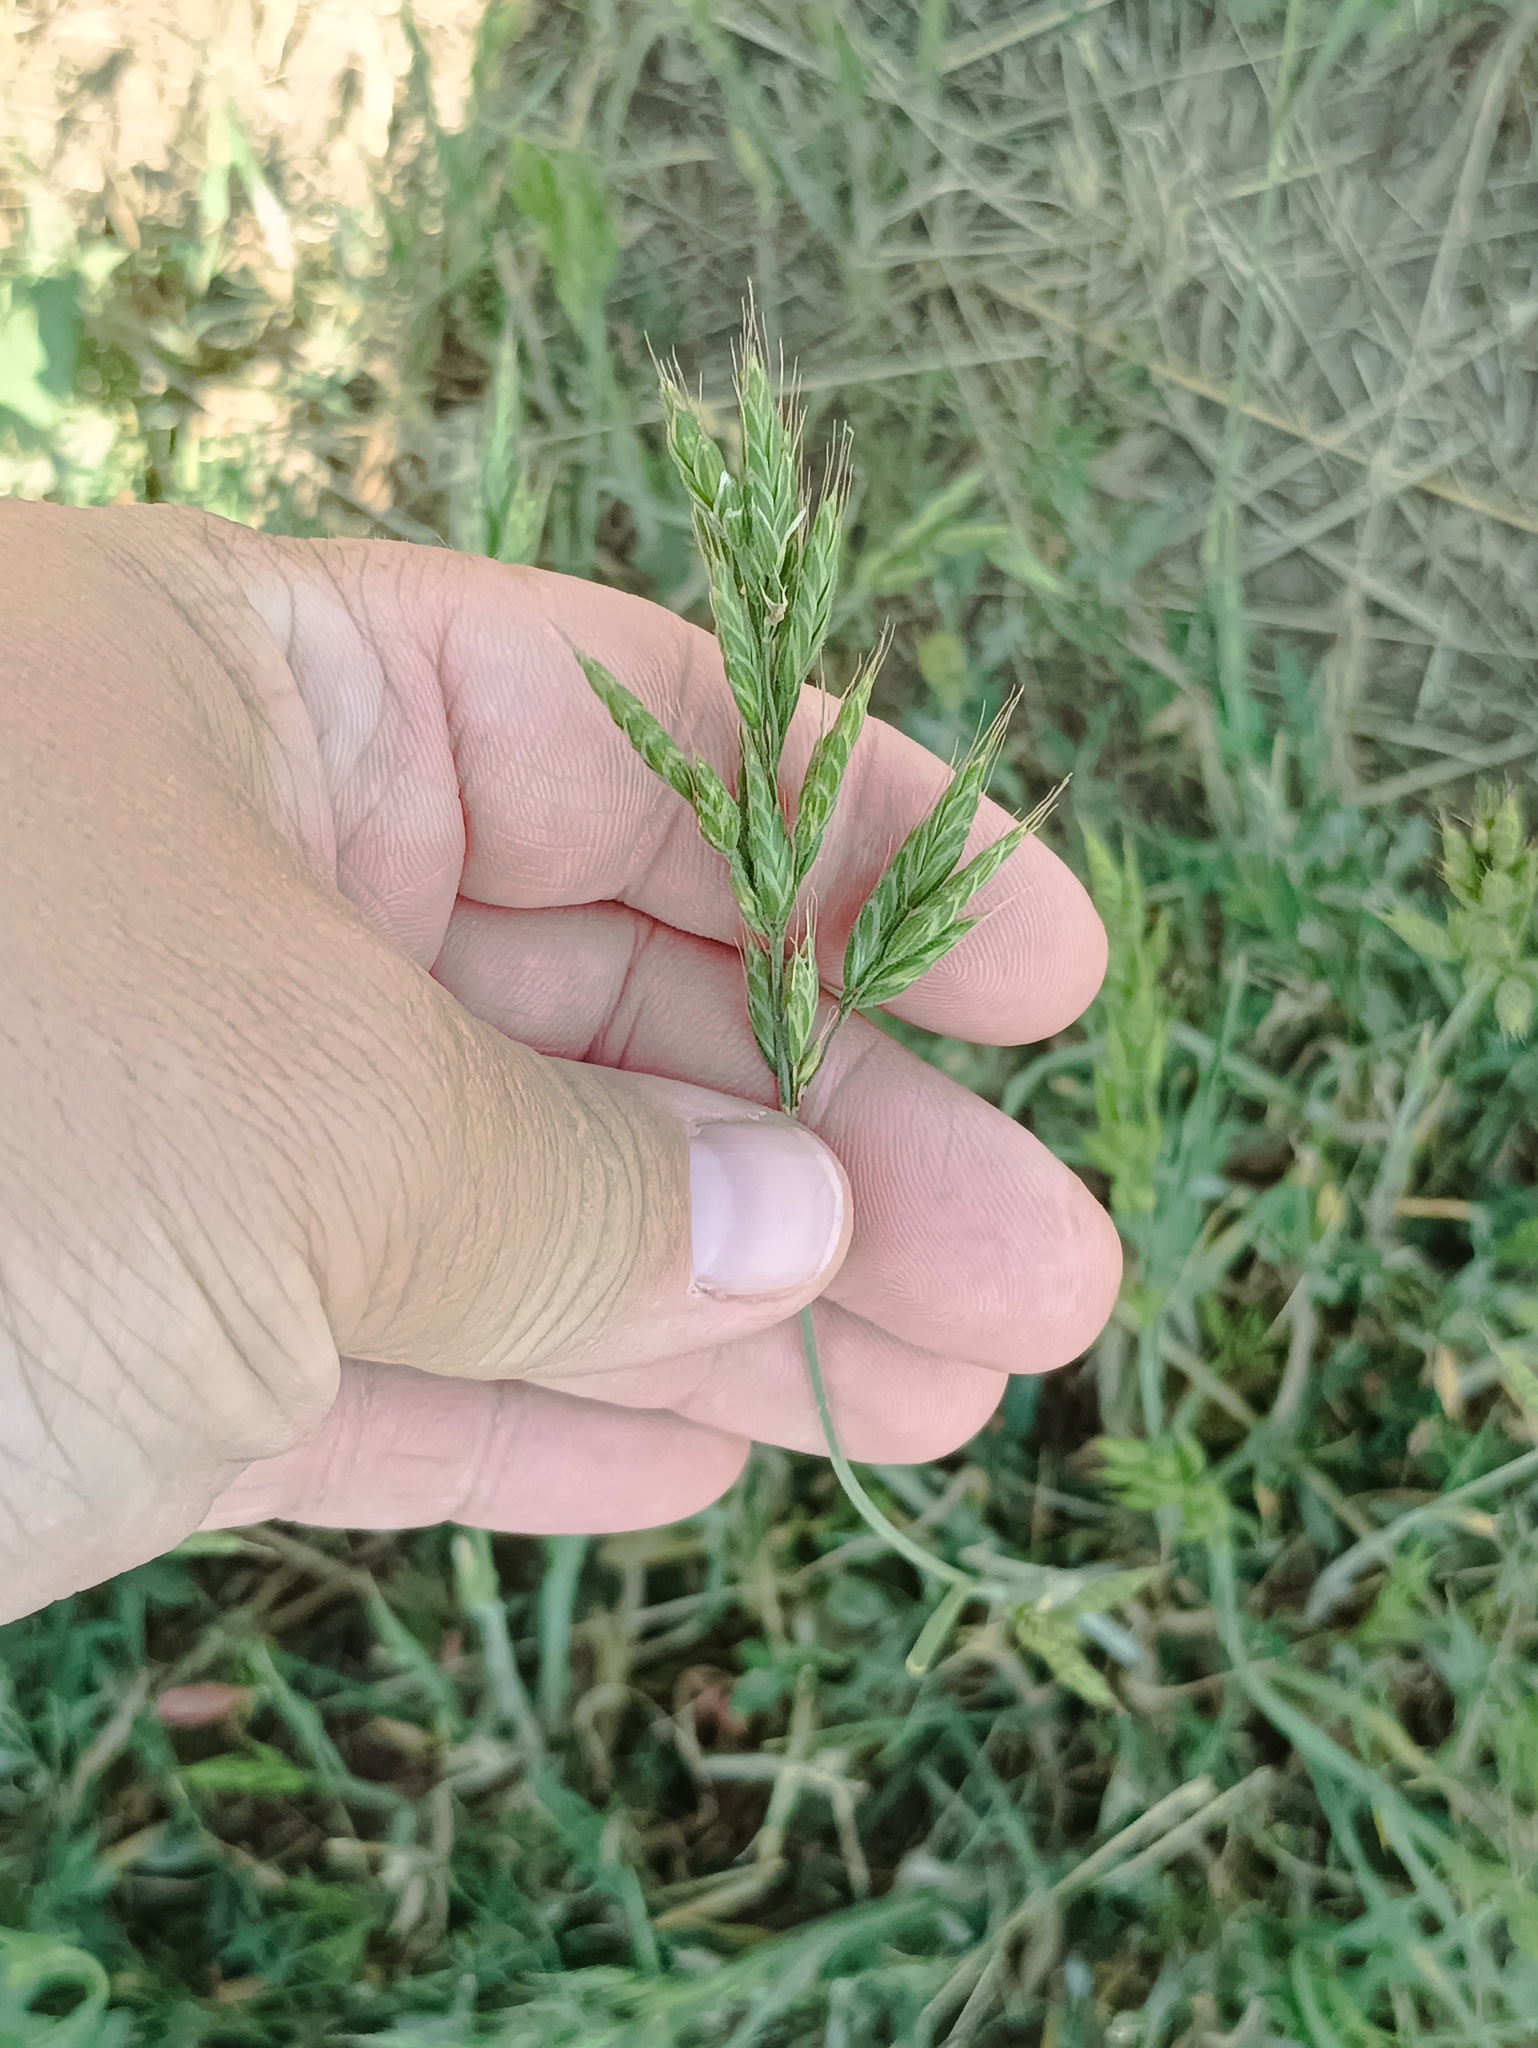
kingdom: Plantae
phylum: Tracheophyta
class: Liliopsida
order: Poales
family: Poaceae
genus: Bromus
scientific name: Bromus hordeaceus
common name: Soft brome
